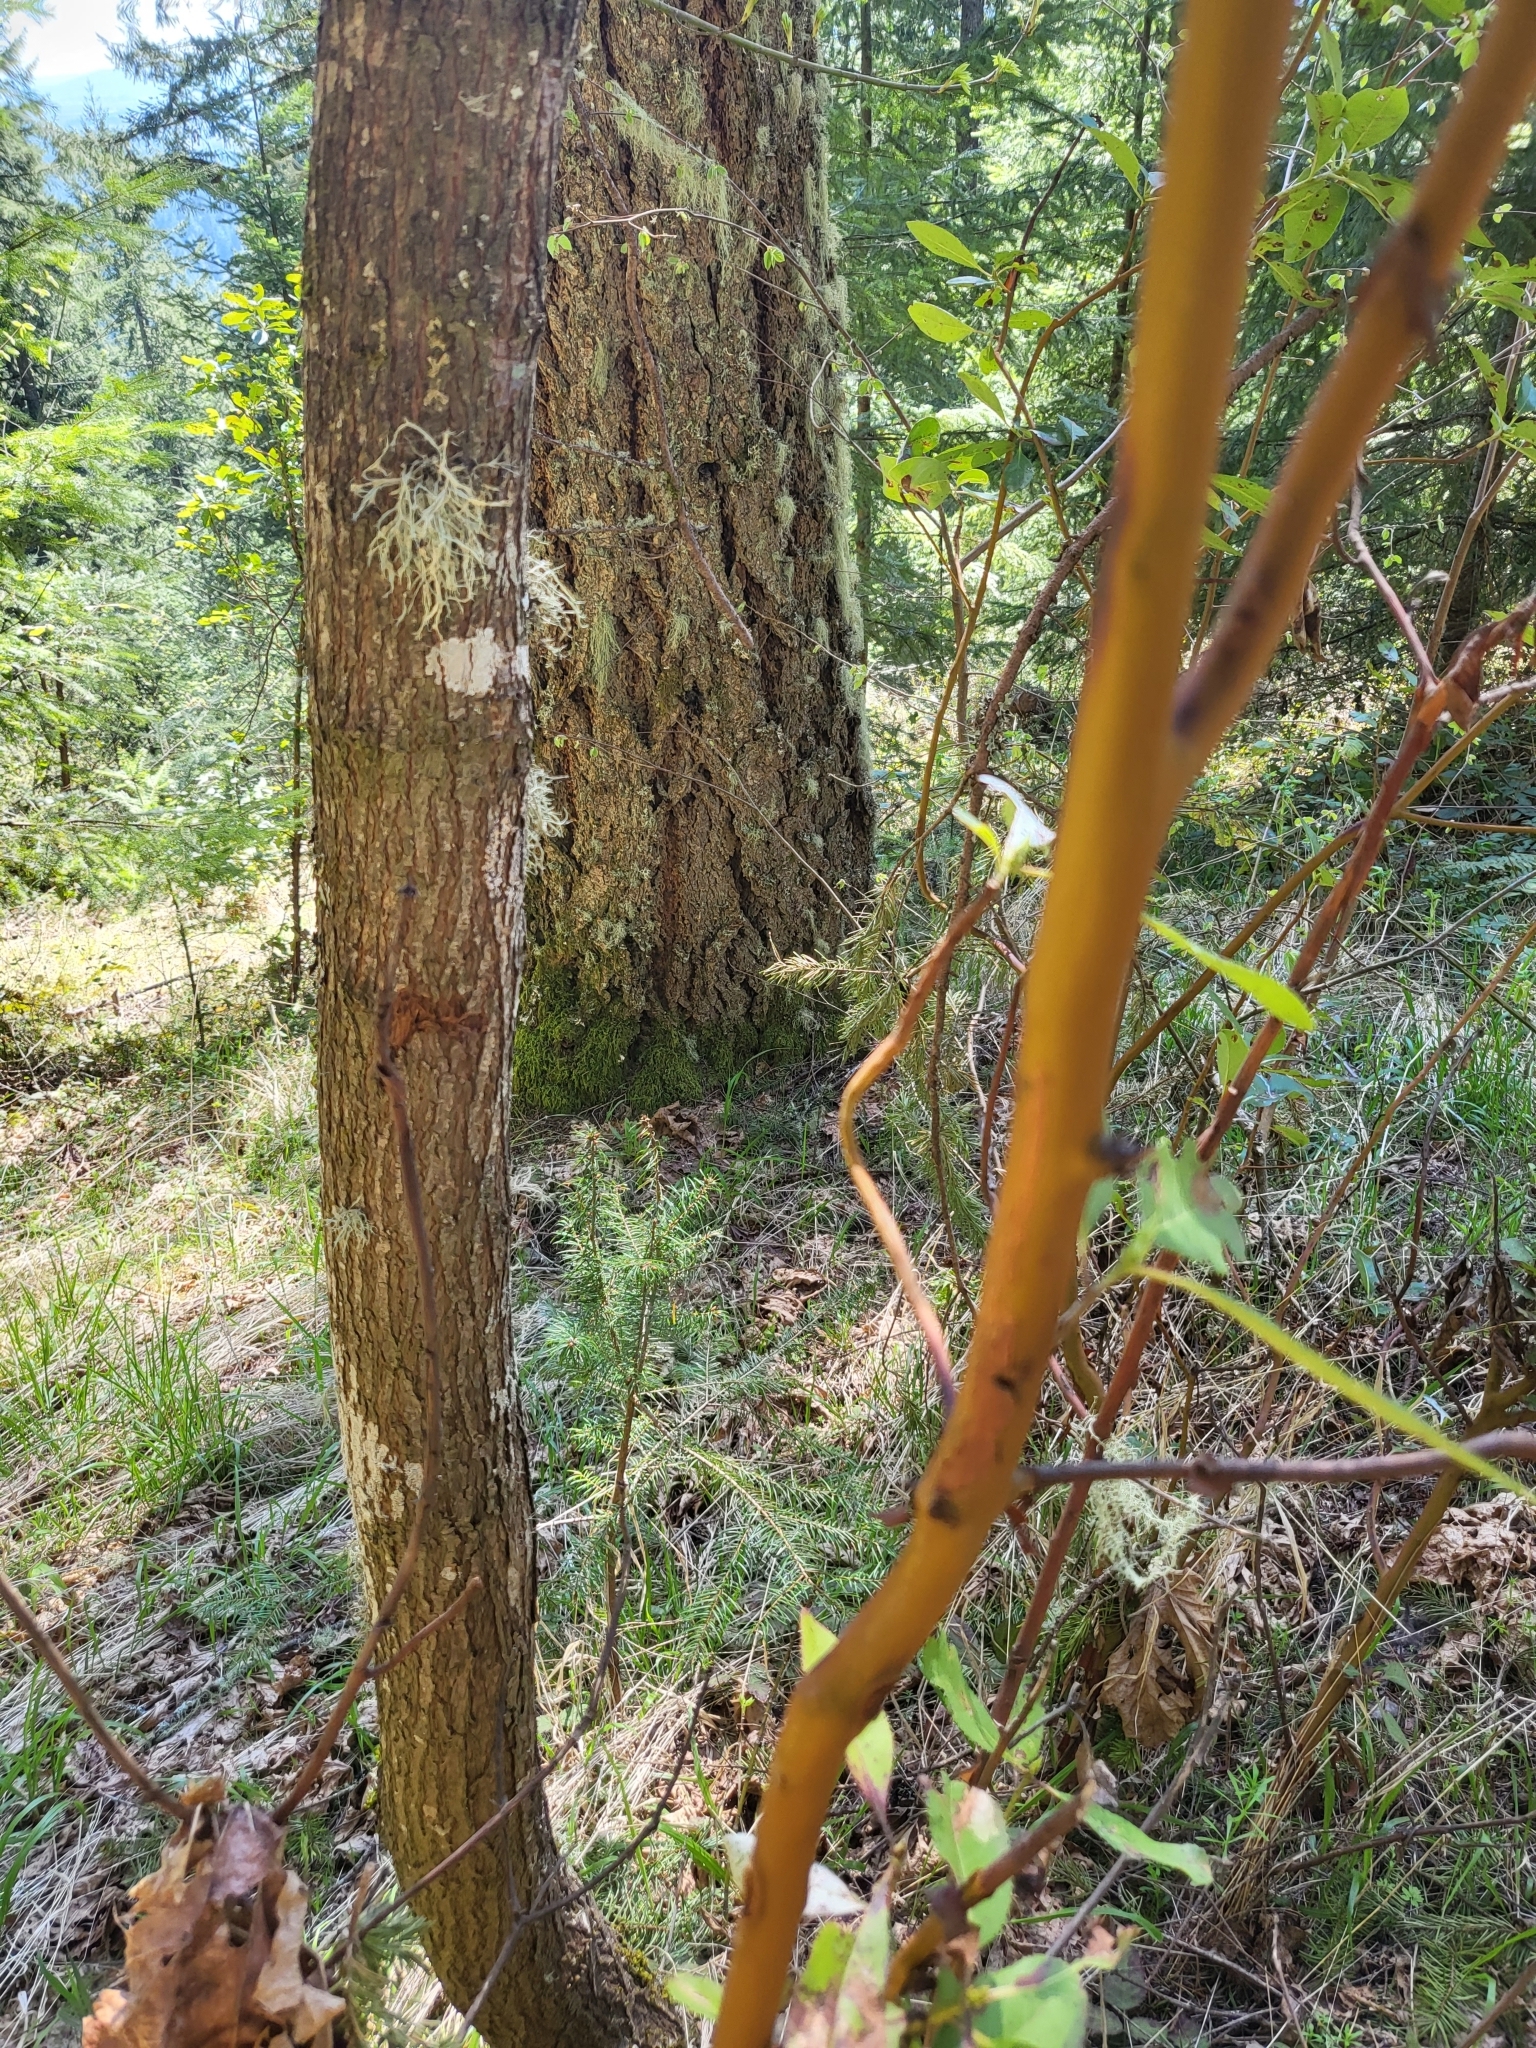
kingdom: Plantae
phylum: Tracheophyta
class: Magnoliopsida
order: Ericales
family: Ericaceae
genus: Arbutus
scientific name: Arbutus menziesii
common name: Pacific madrone
